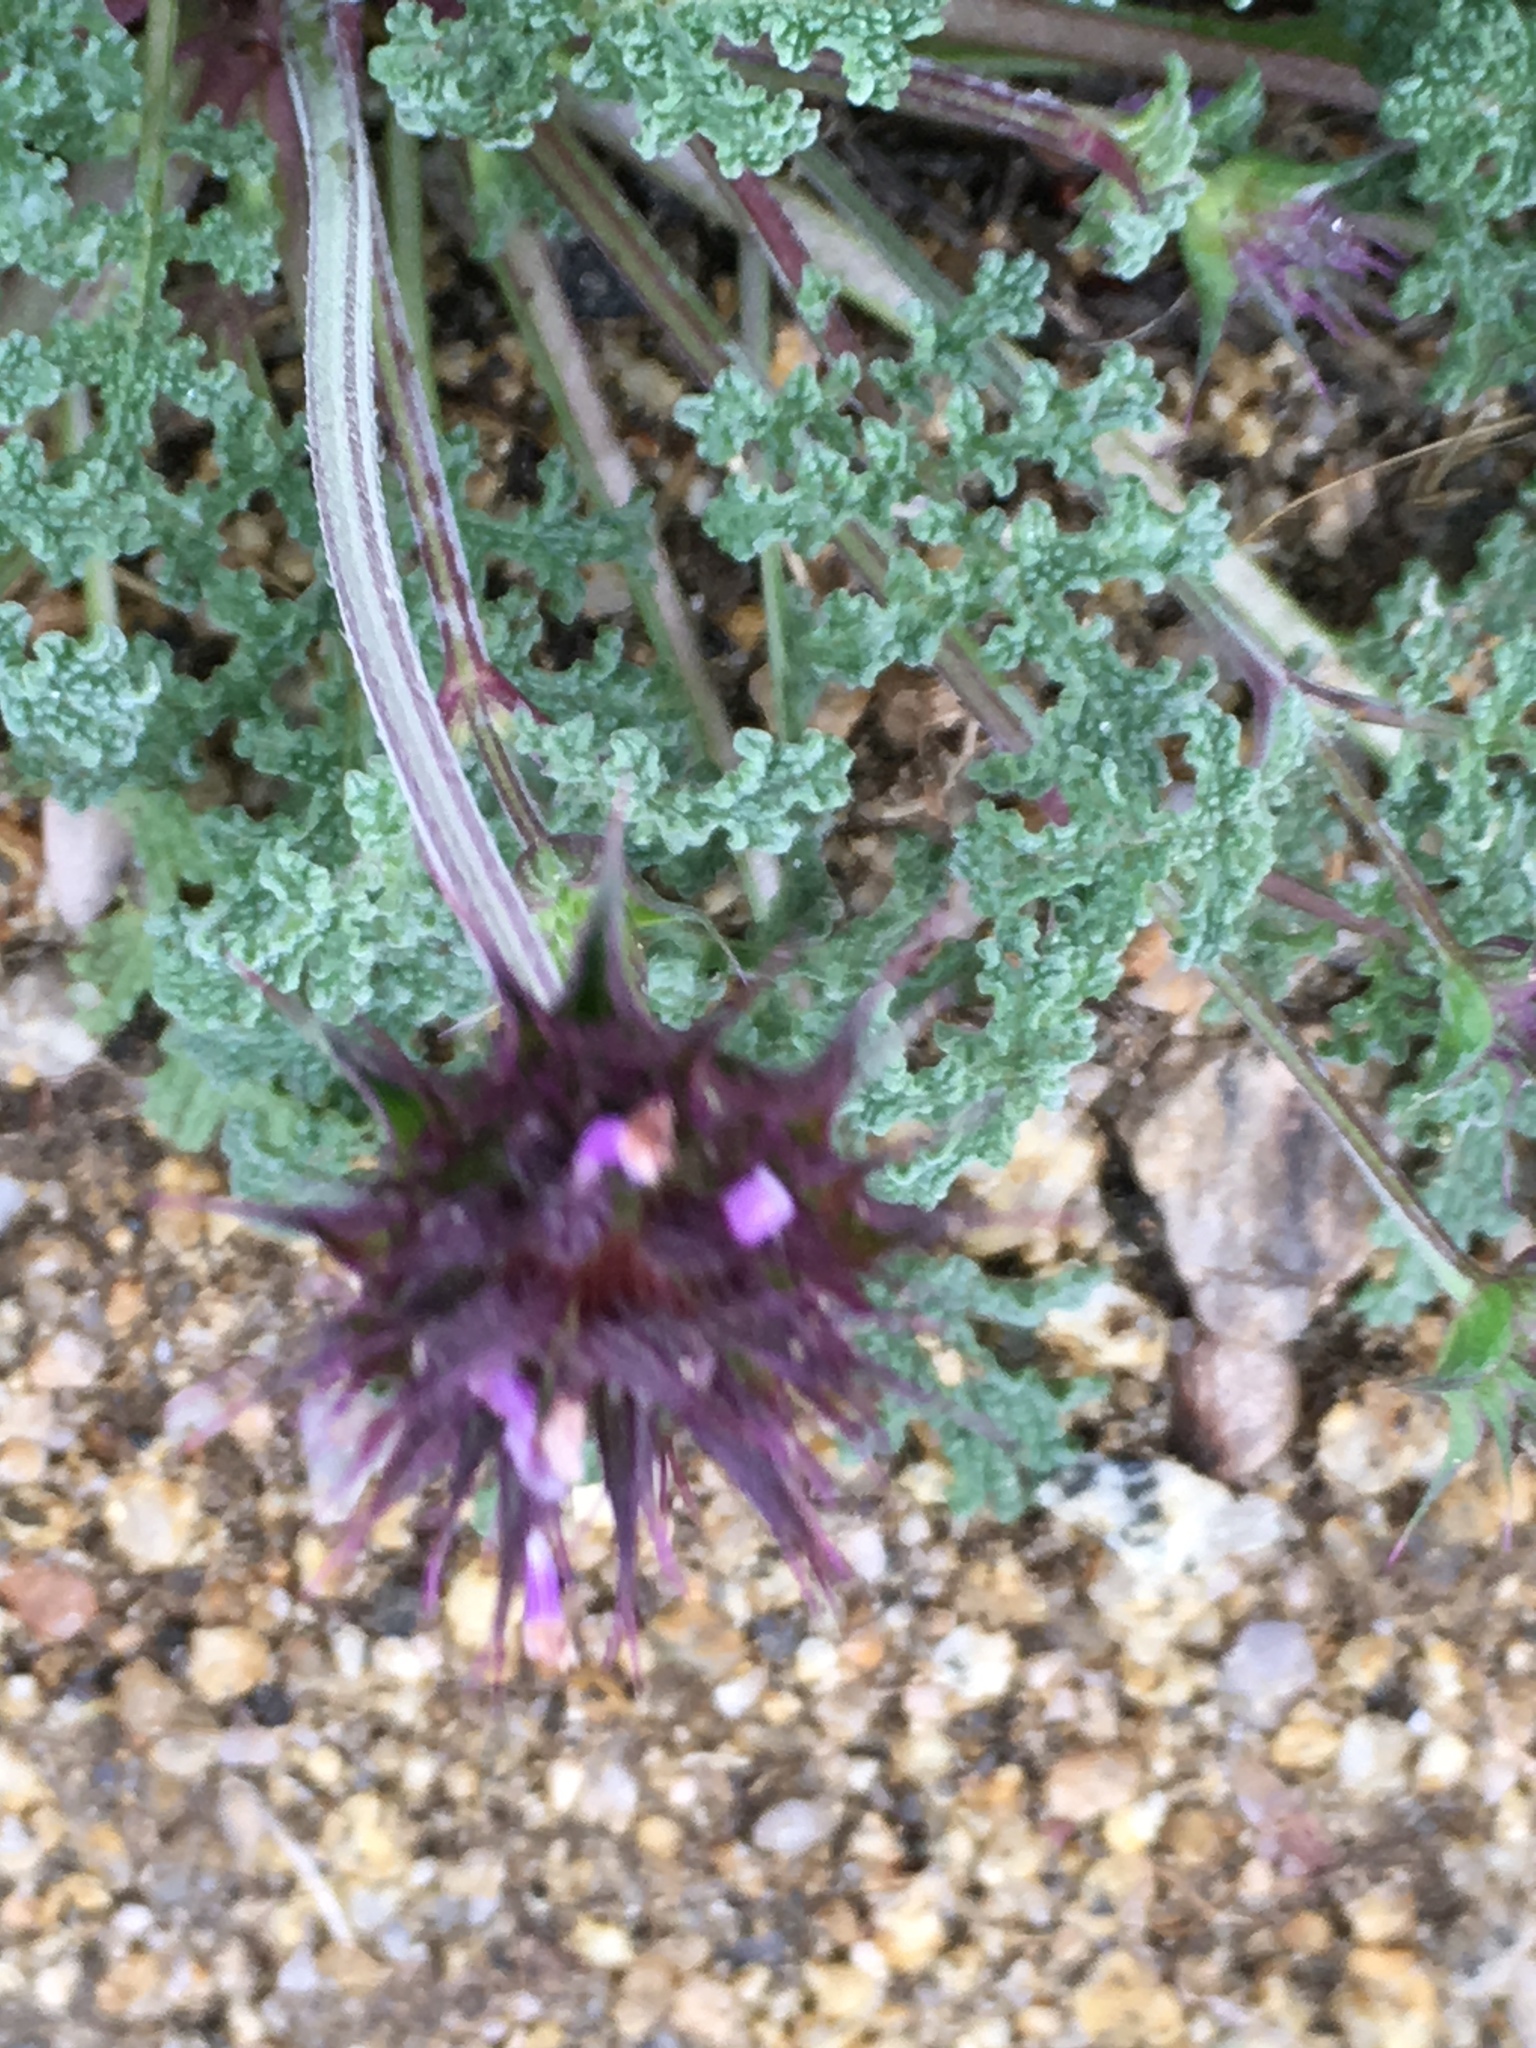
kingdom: Plantae
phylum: Tracheophyta
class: Magnoliopsida
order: Lamiales
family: Lamiaceae
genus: Salvia
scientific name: Salvia columbariae
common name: Chia
